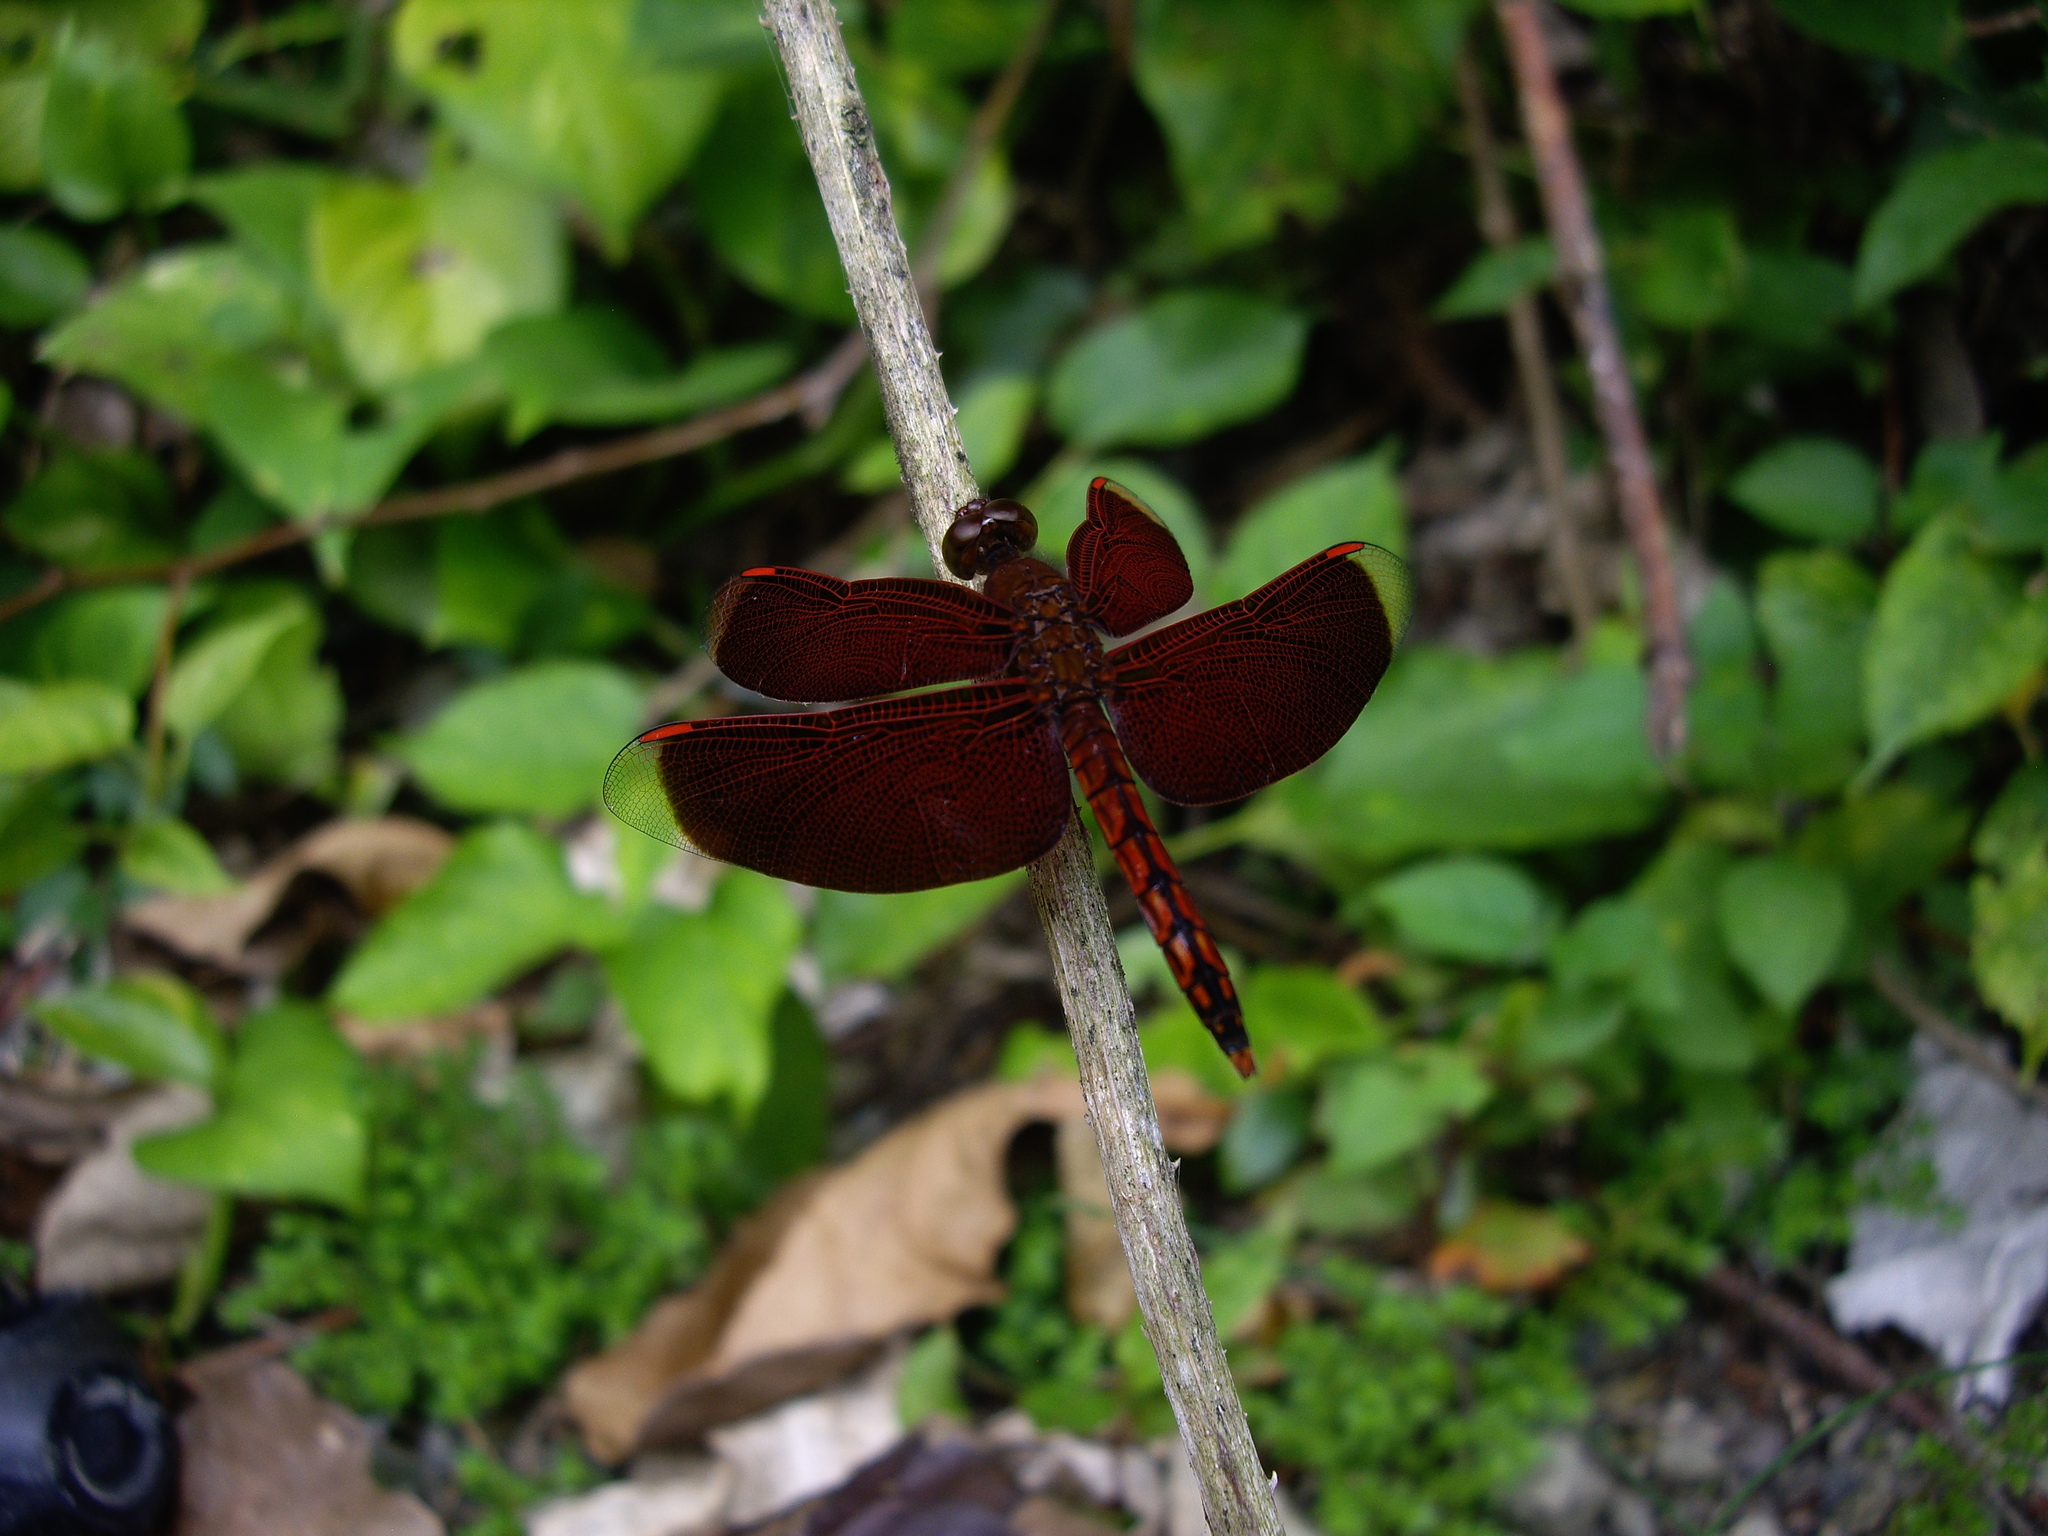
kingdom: Animalia
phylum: Arthropoda
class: Insecta
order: Odonata
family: Libellulidae
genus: Neurothemis
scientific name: Neurothemis taiwanensis
